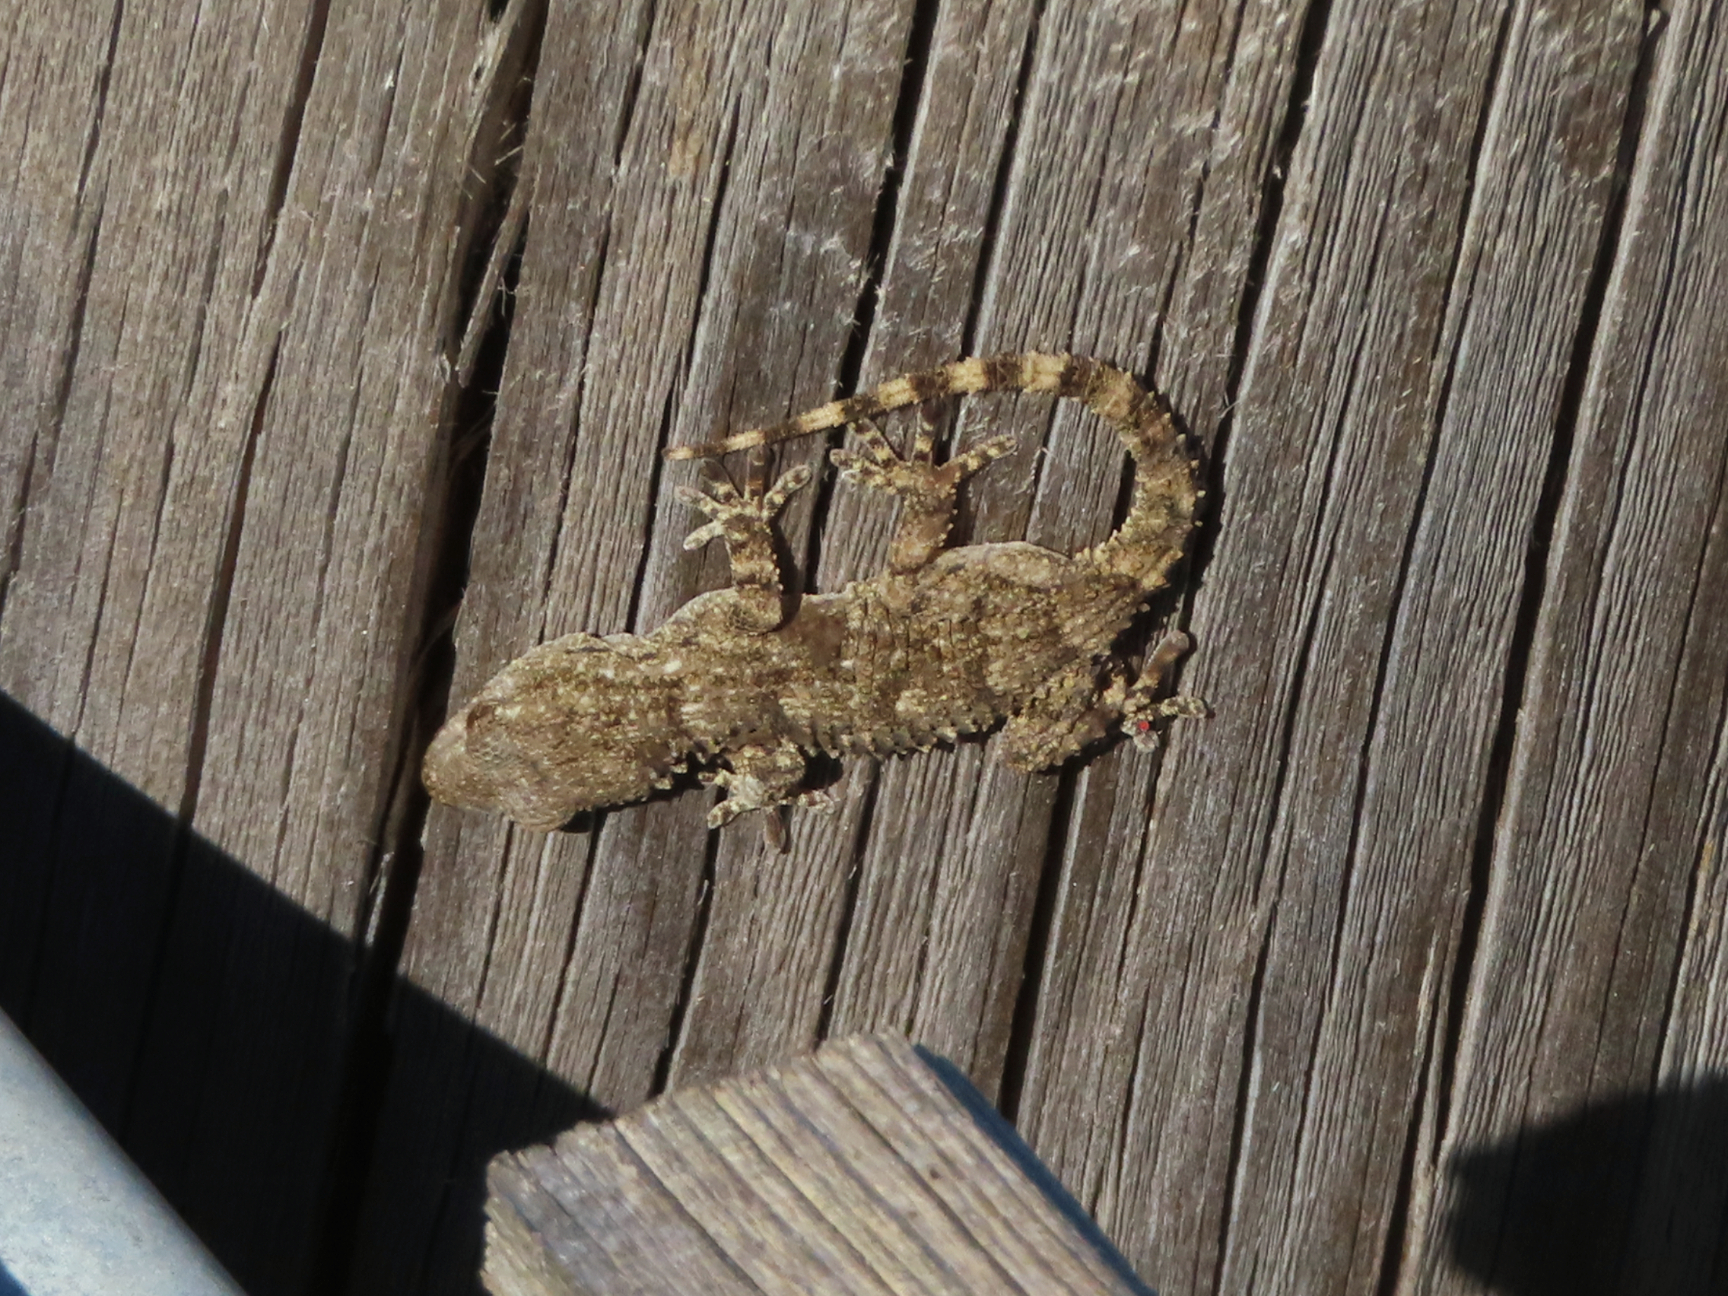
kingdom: Animalia
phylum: Chordata
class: Squamata
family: Phyllodactylidae
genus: Tarentola
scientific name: Tarentola mauritanica
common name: Moorish gecko
